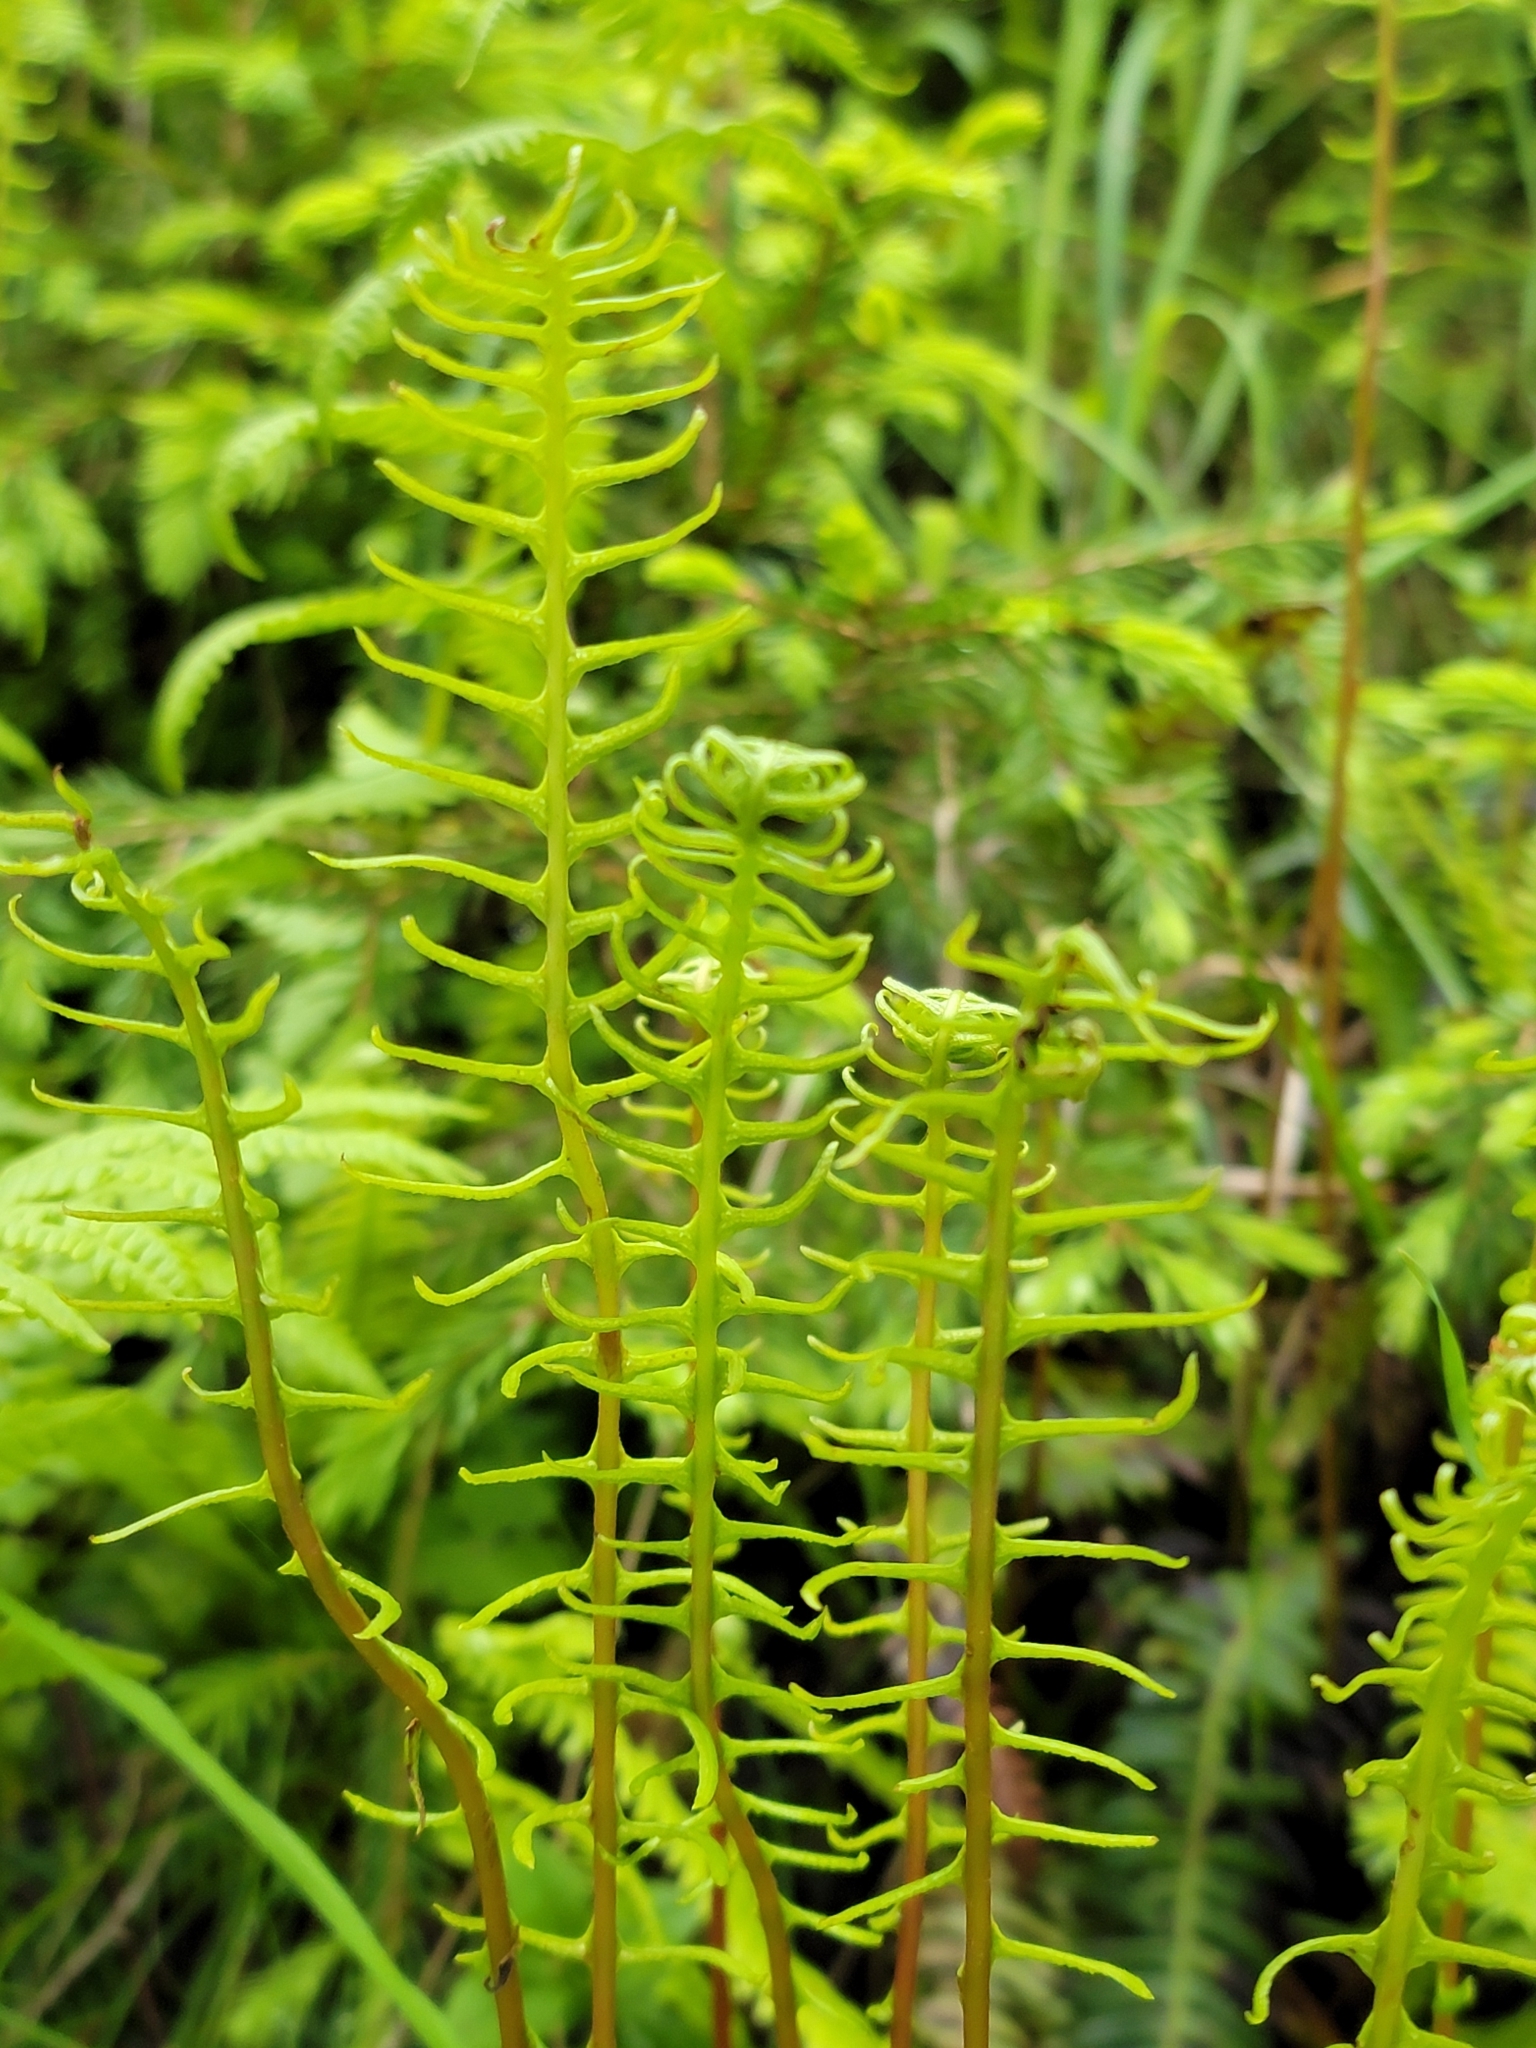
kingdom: Plantae
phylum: Tracheophyta
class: Polypodiopsida
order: Polypodiales
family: Blechnaceae
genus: Struthiopteris
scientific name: Struthiopteris spicant
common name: Deer fern
